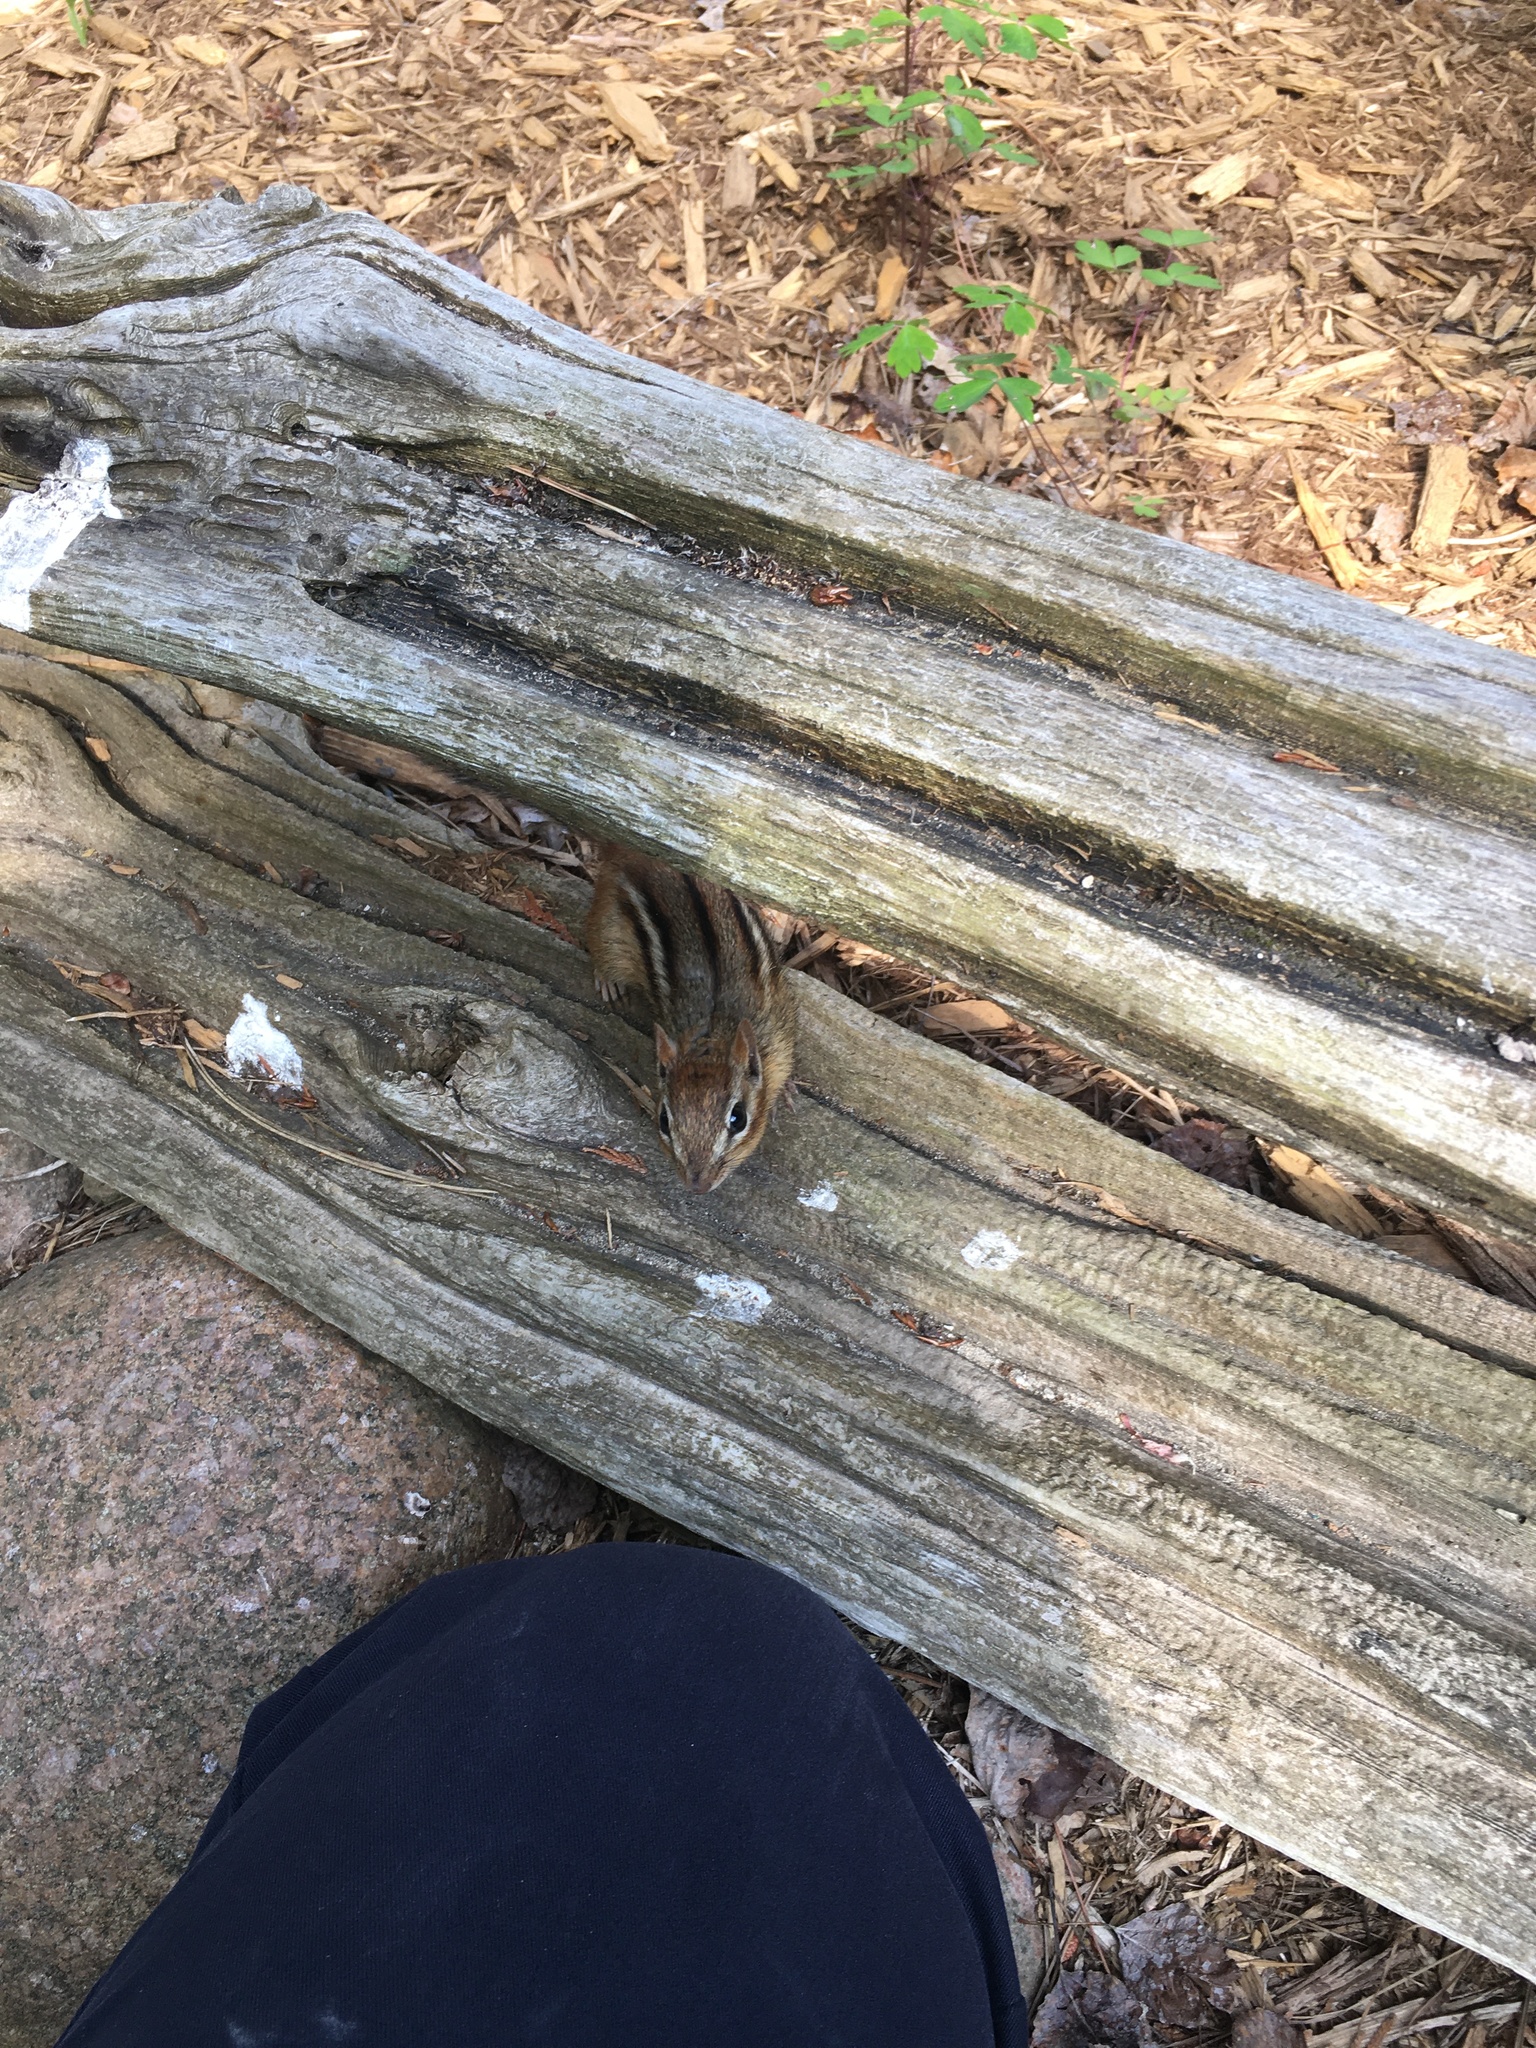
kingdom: Animalia
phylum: Chordata
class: Mammalia
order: Rodentia
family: Sciuridae
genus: Tamias
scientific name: Tamias striatus
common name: Eastern chipmunk
